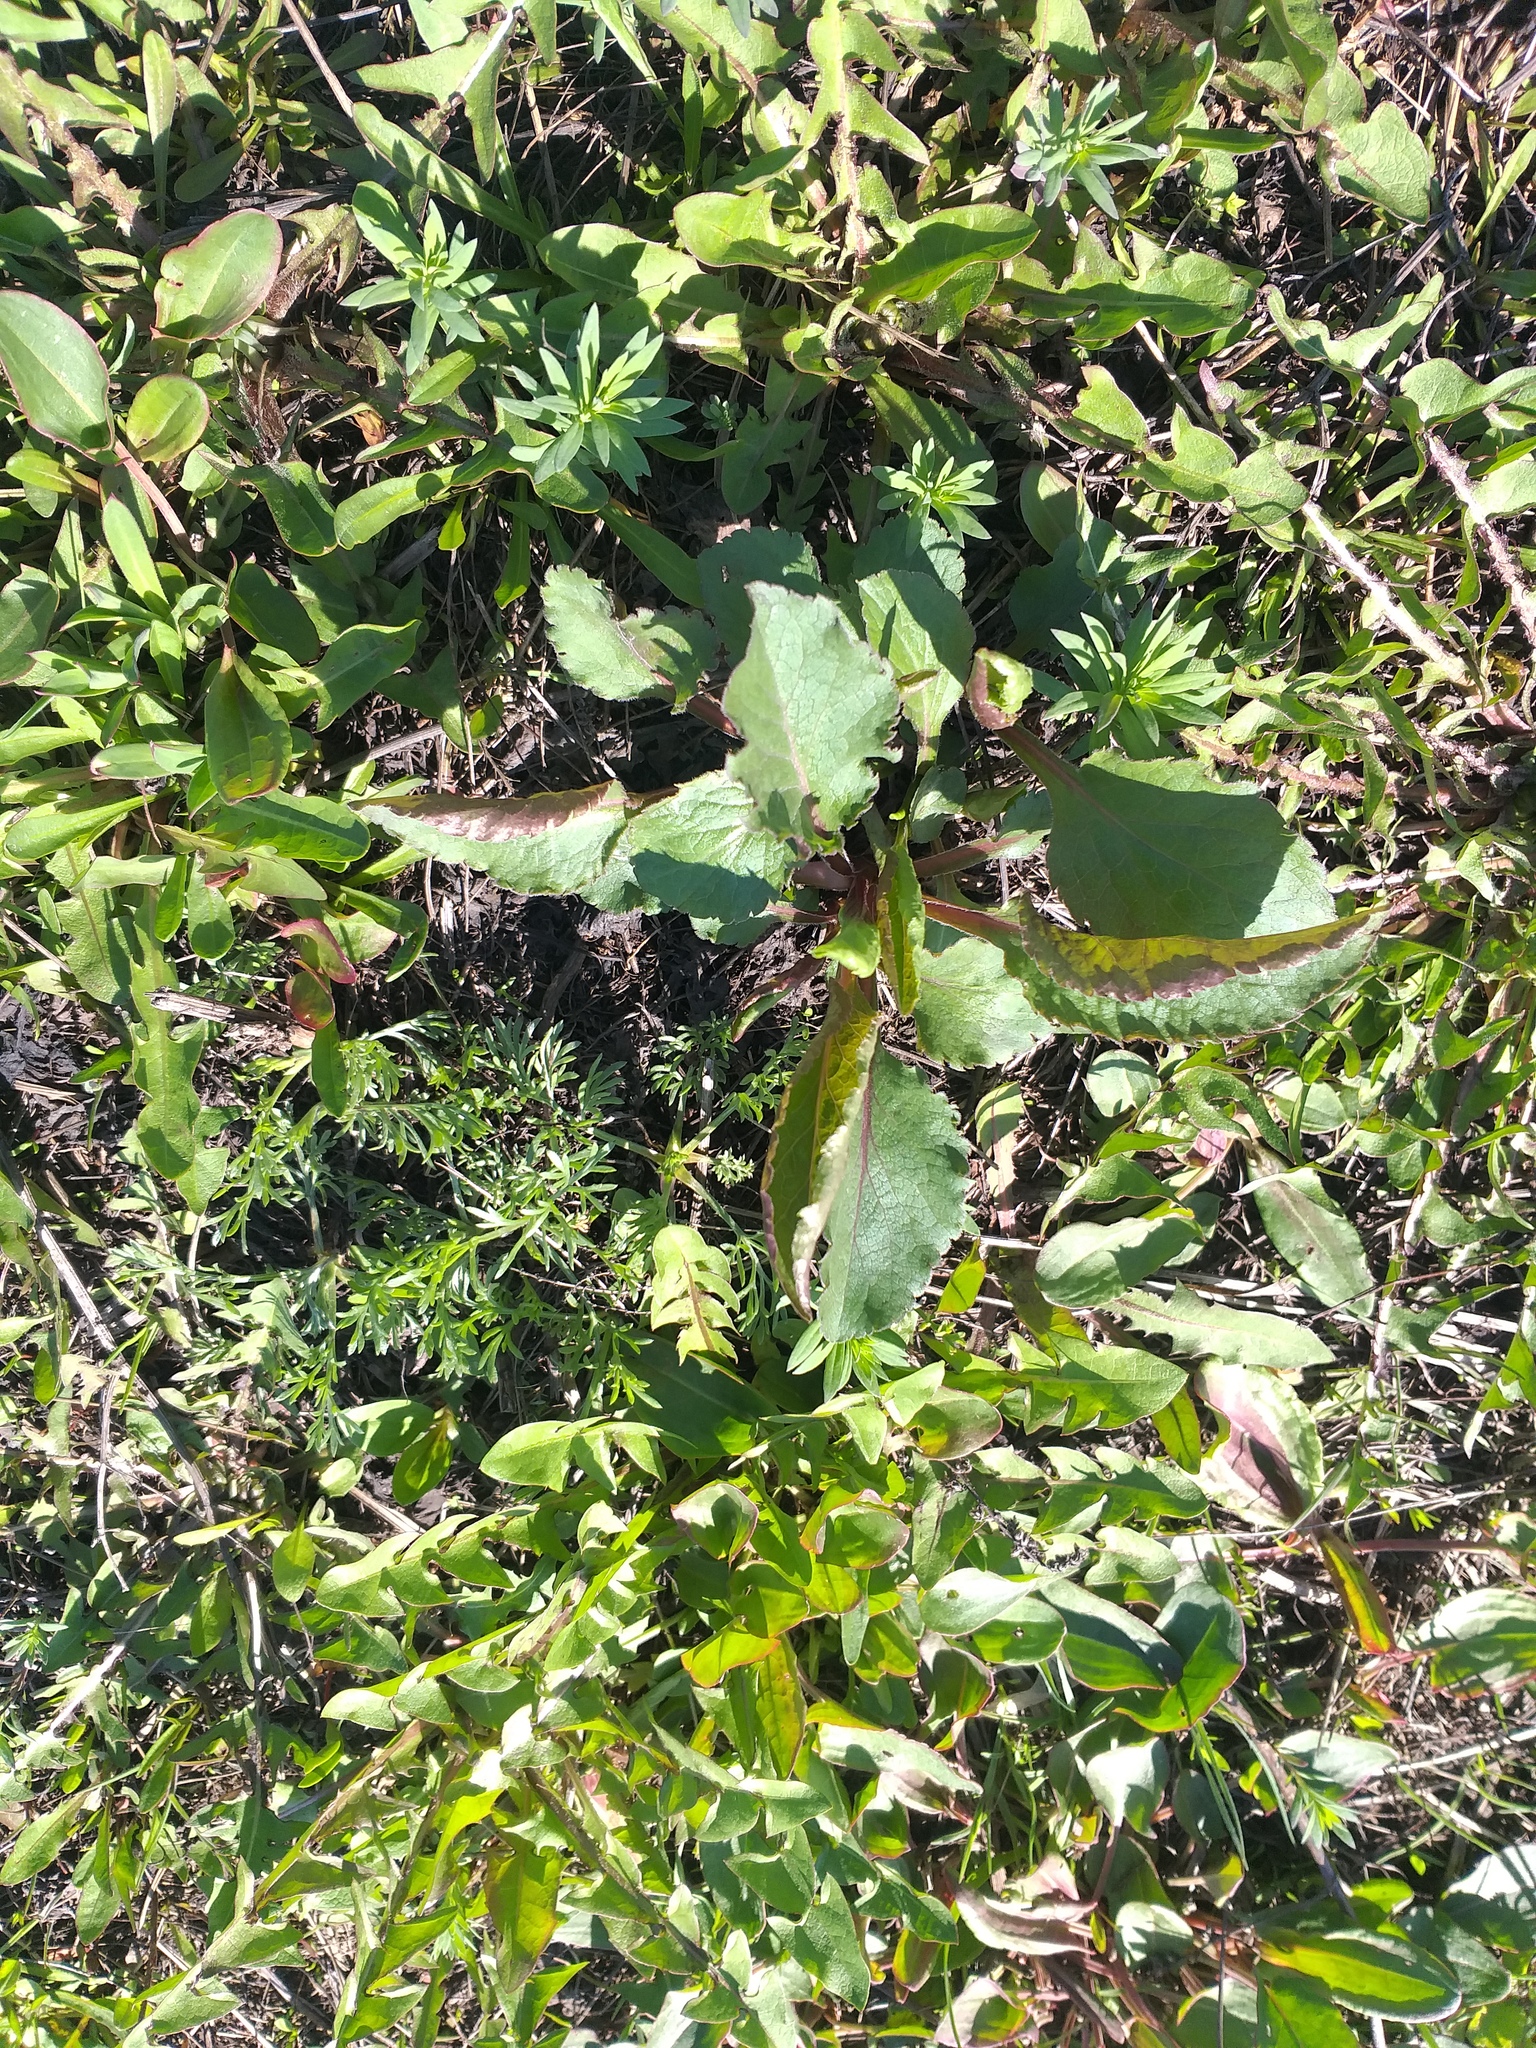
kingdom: Plantae
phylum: Tracheophyta
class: Magnoliopsida
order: Asterales
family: Asteraceae
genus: Solidago
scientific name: Solidago virgaurea
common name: Goldenrod
